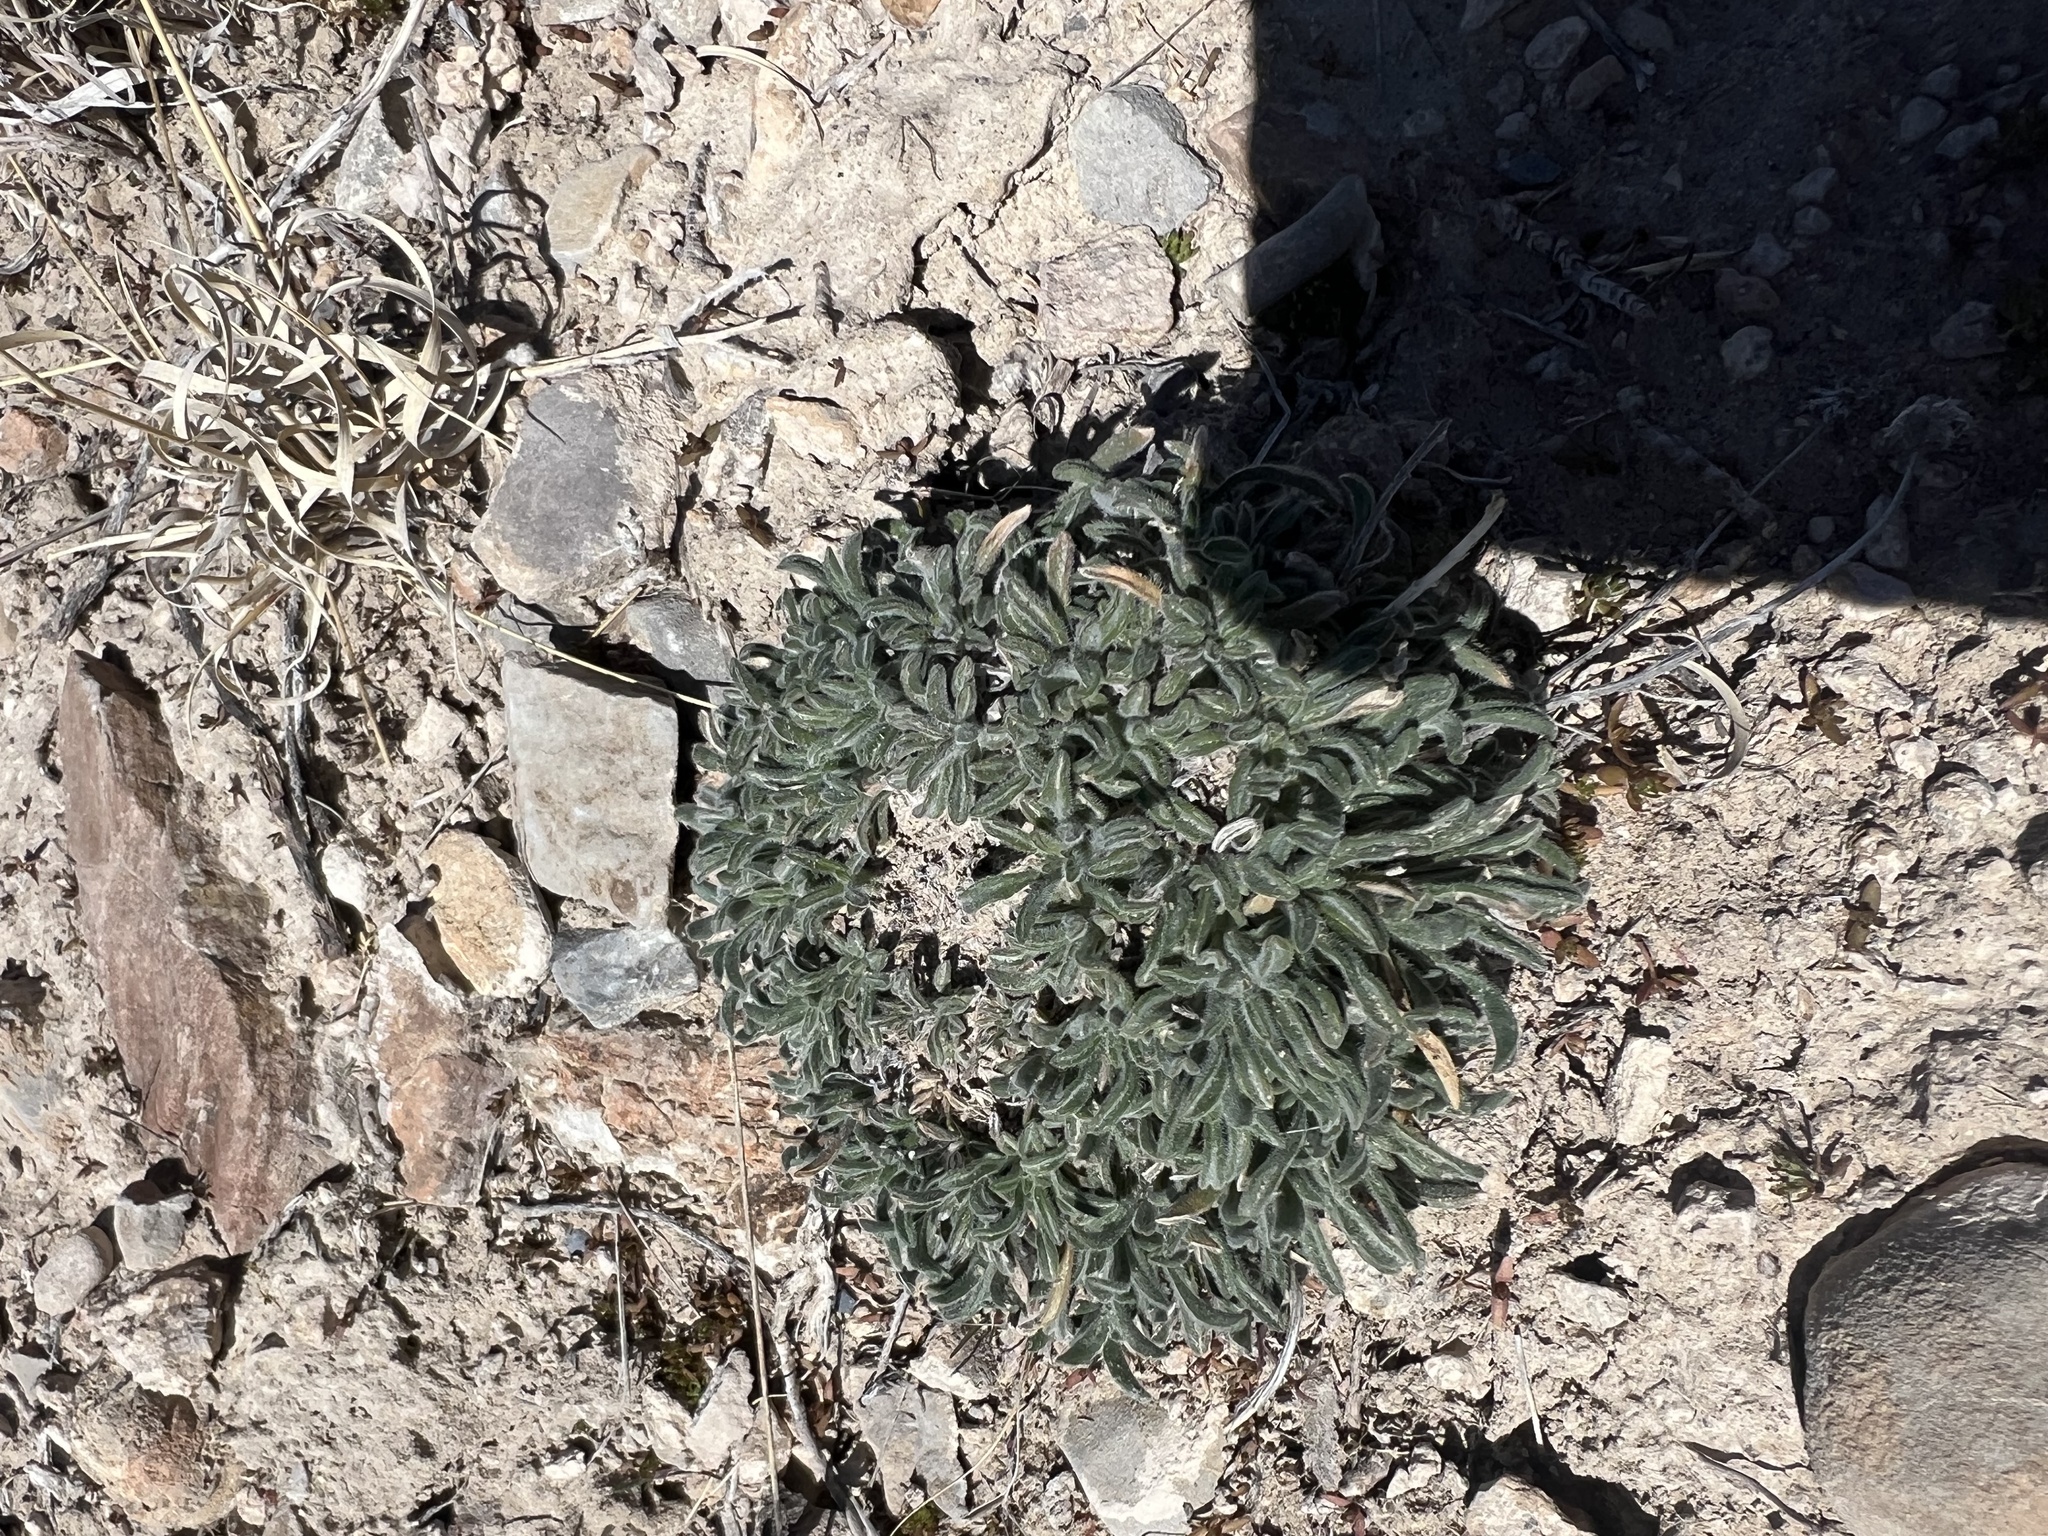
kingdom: Plantae
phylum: Tracheophyta
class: Magnoliopsida
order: Boraginales
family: Boraginaceae
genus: Oreocarya
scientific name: Oreocarya humilis
